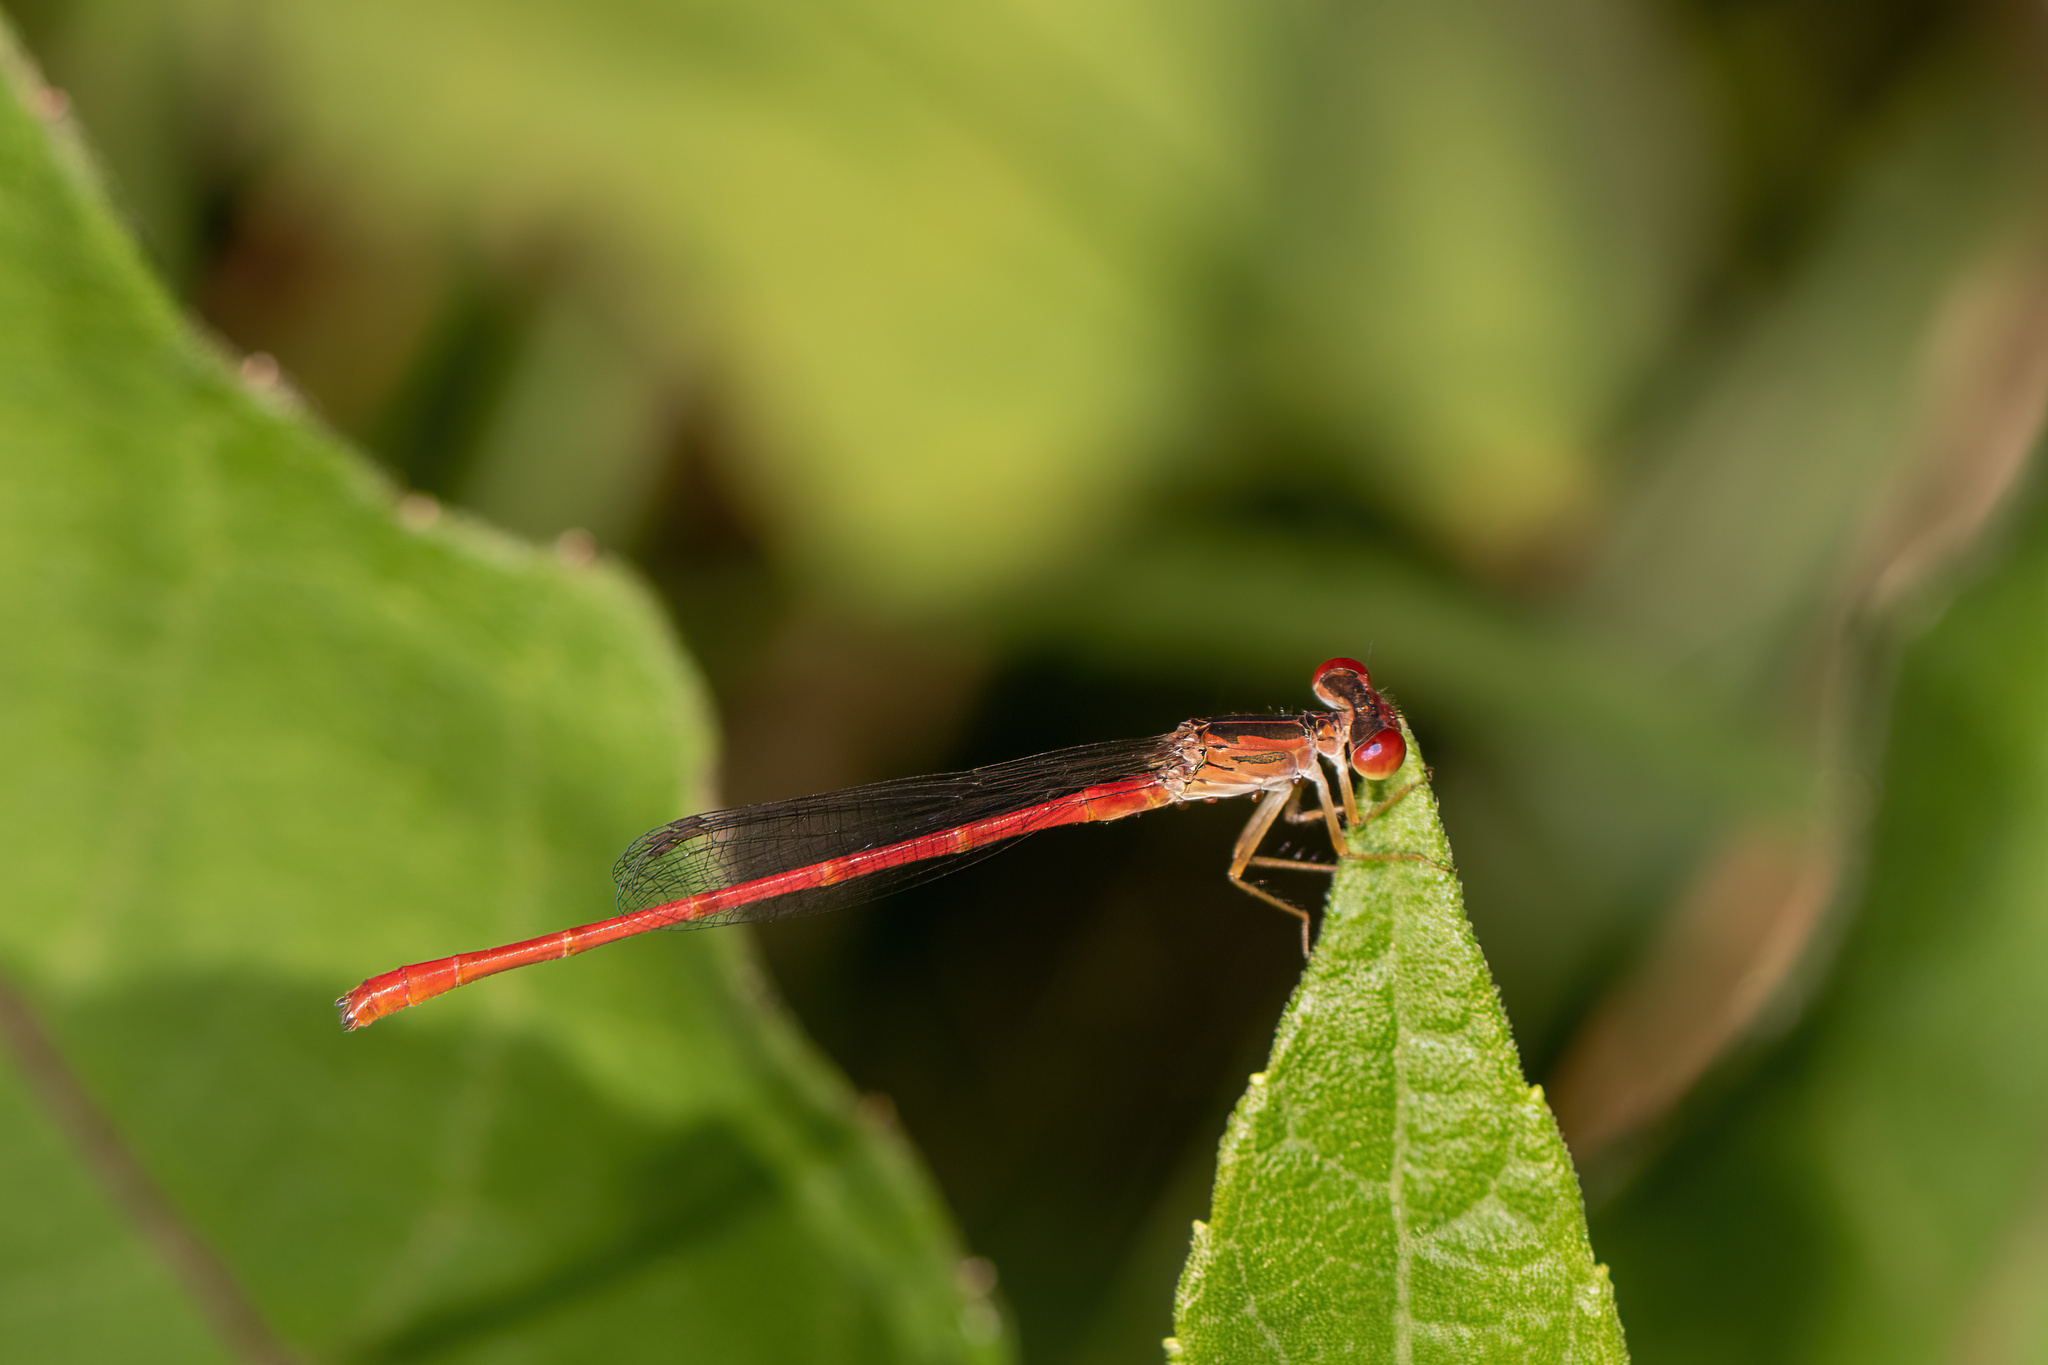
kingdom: Animalia
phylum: Arthropoda
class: Insecta
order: Odonata
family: Coenagrionidae
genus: Telebasis
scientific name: Telebasis byersi
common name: Duckweed firetail
